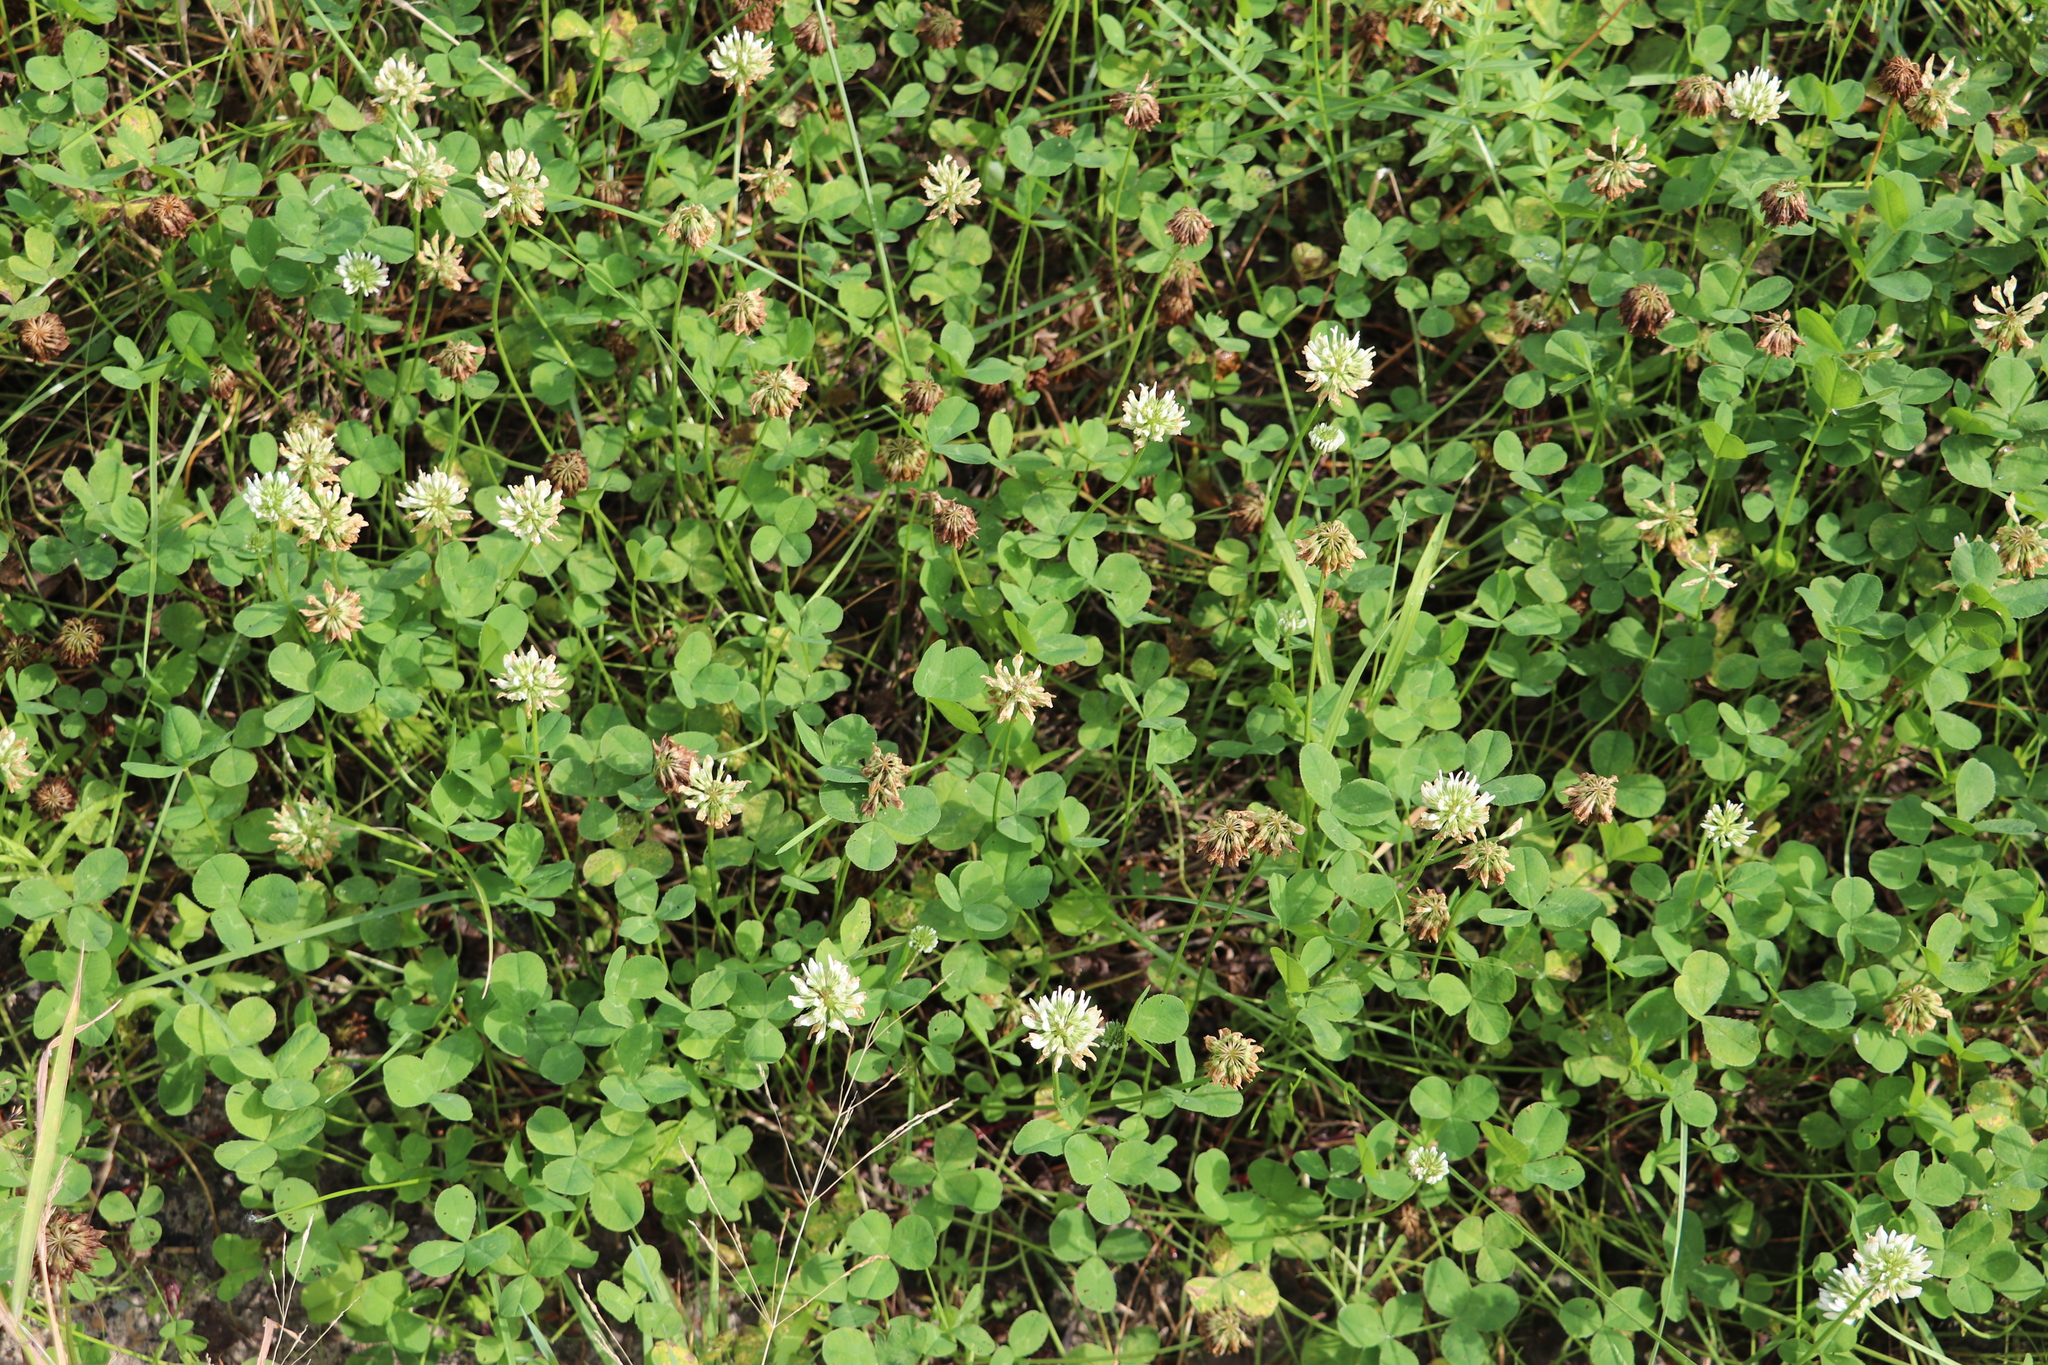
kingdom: Plantae
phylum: Tracheophyta
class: Magnoliopsida
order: Fabales
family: Fabaceae
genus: Trifolium
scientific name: Trifolium repens
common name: White clover
